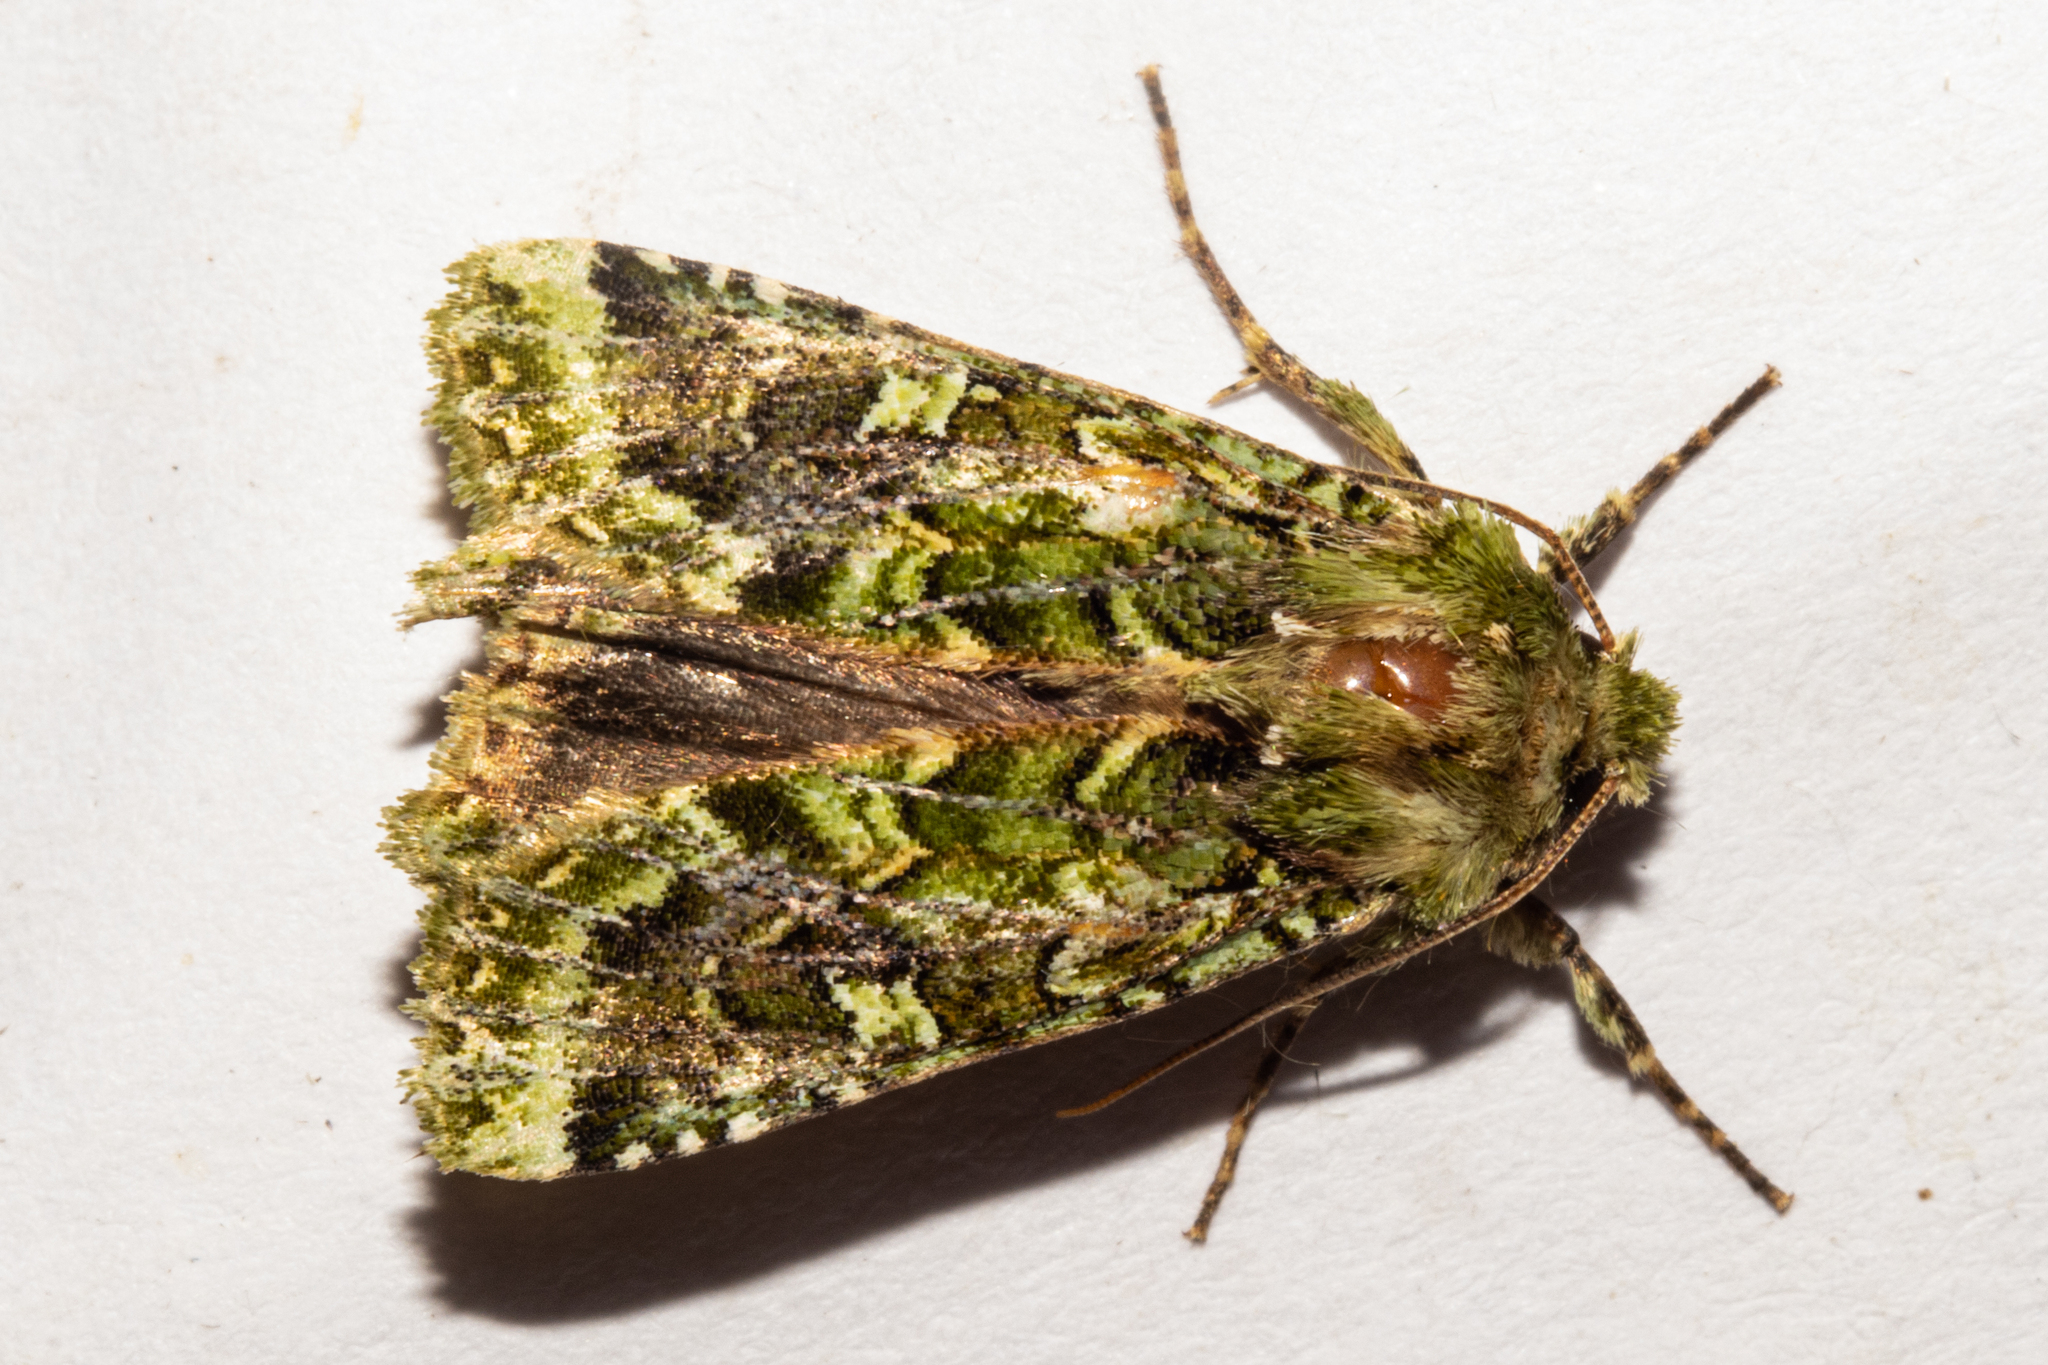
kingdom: Animalia
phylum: Arthropoda
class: Insecta
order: Lepidoptera
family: Noctuidae
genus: Feredayia
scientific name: Feredayia grammosa
